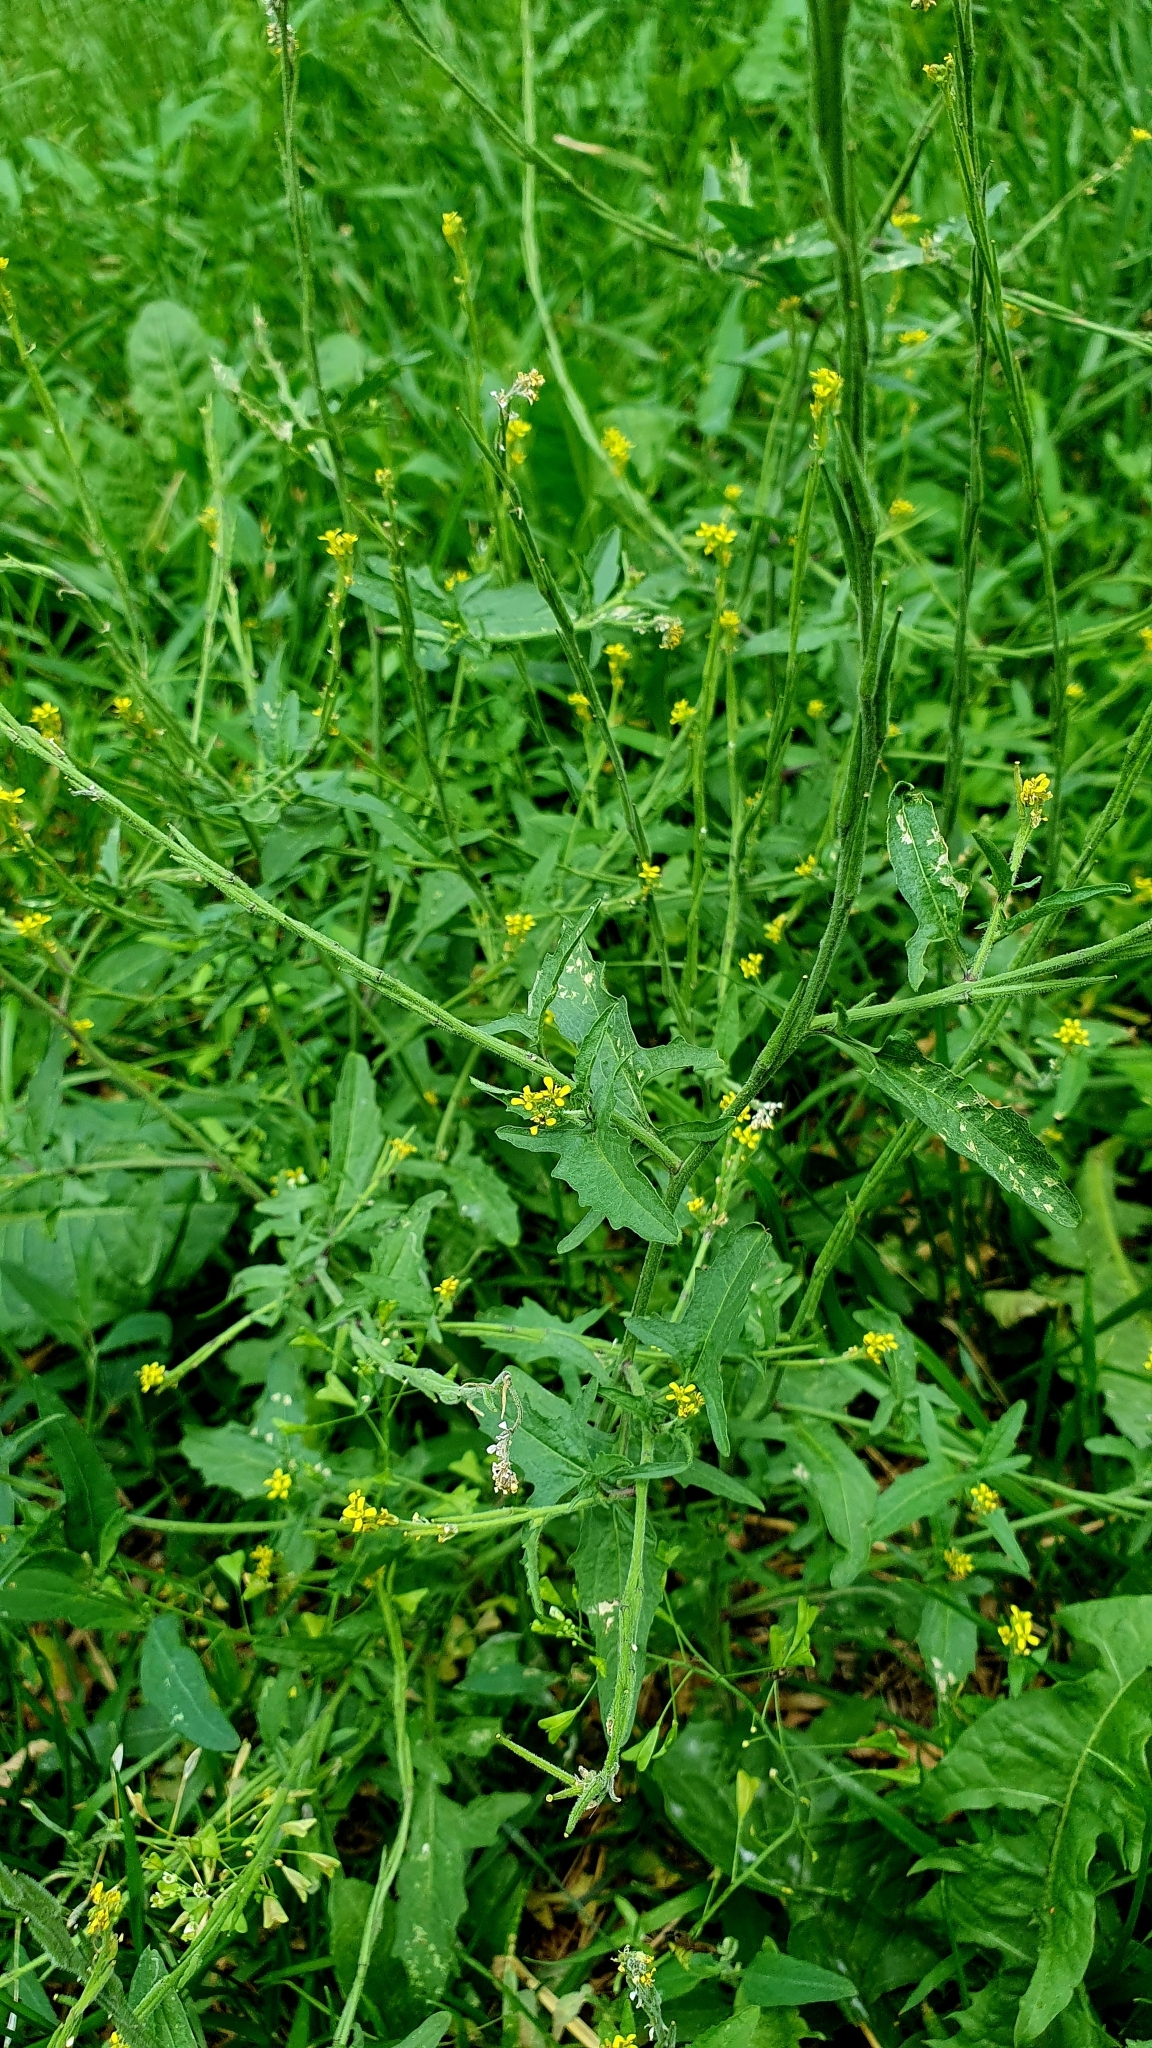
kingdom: Plantae
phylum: Tracheophyta
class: Magnoliopsida
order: Brassicales
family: Brassicaceae
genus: Sisymbrium
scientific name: Sisymbrium officinale
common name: Hedge mustard
